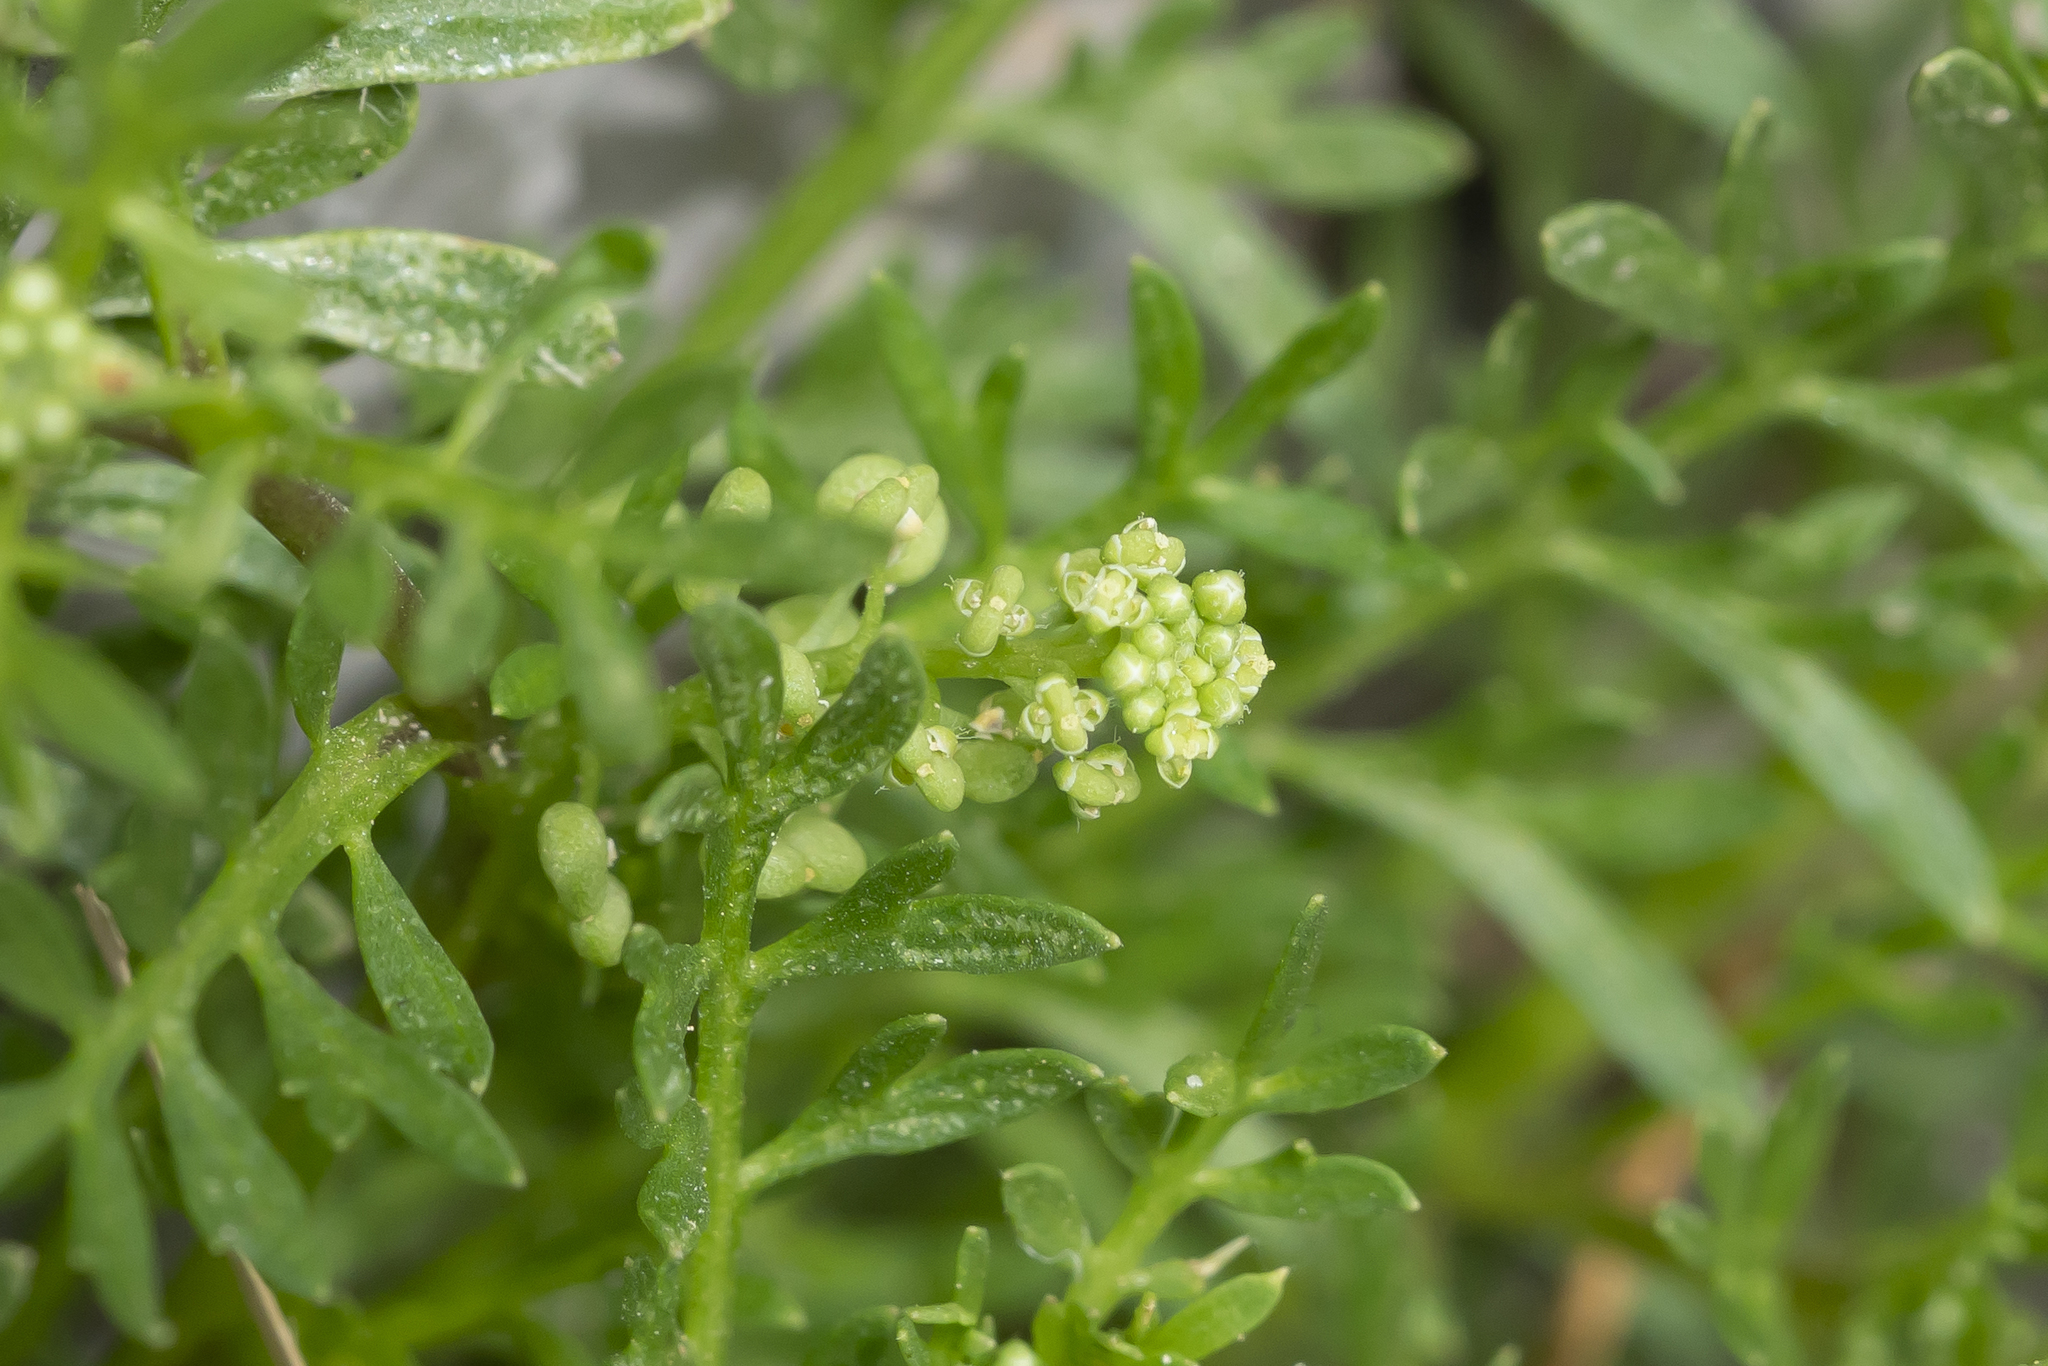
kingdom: Plantae
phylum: Tracheophyta
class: Magnoliopsida
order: Brassicales
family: Brassicaceae
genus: Lepidium
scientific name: Lepidium didymum
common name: Lesser swinecress
